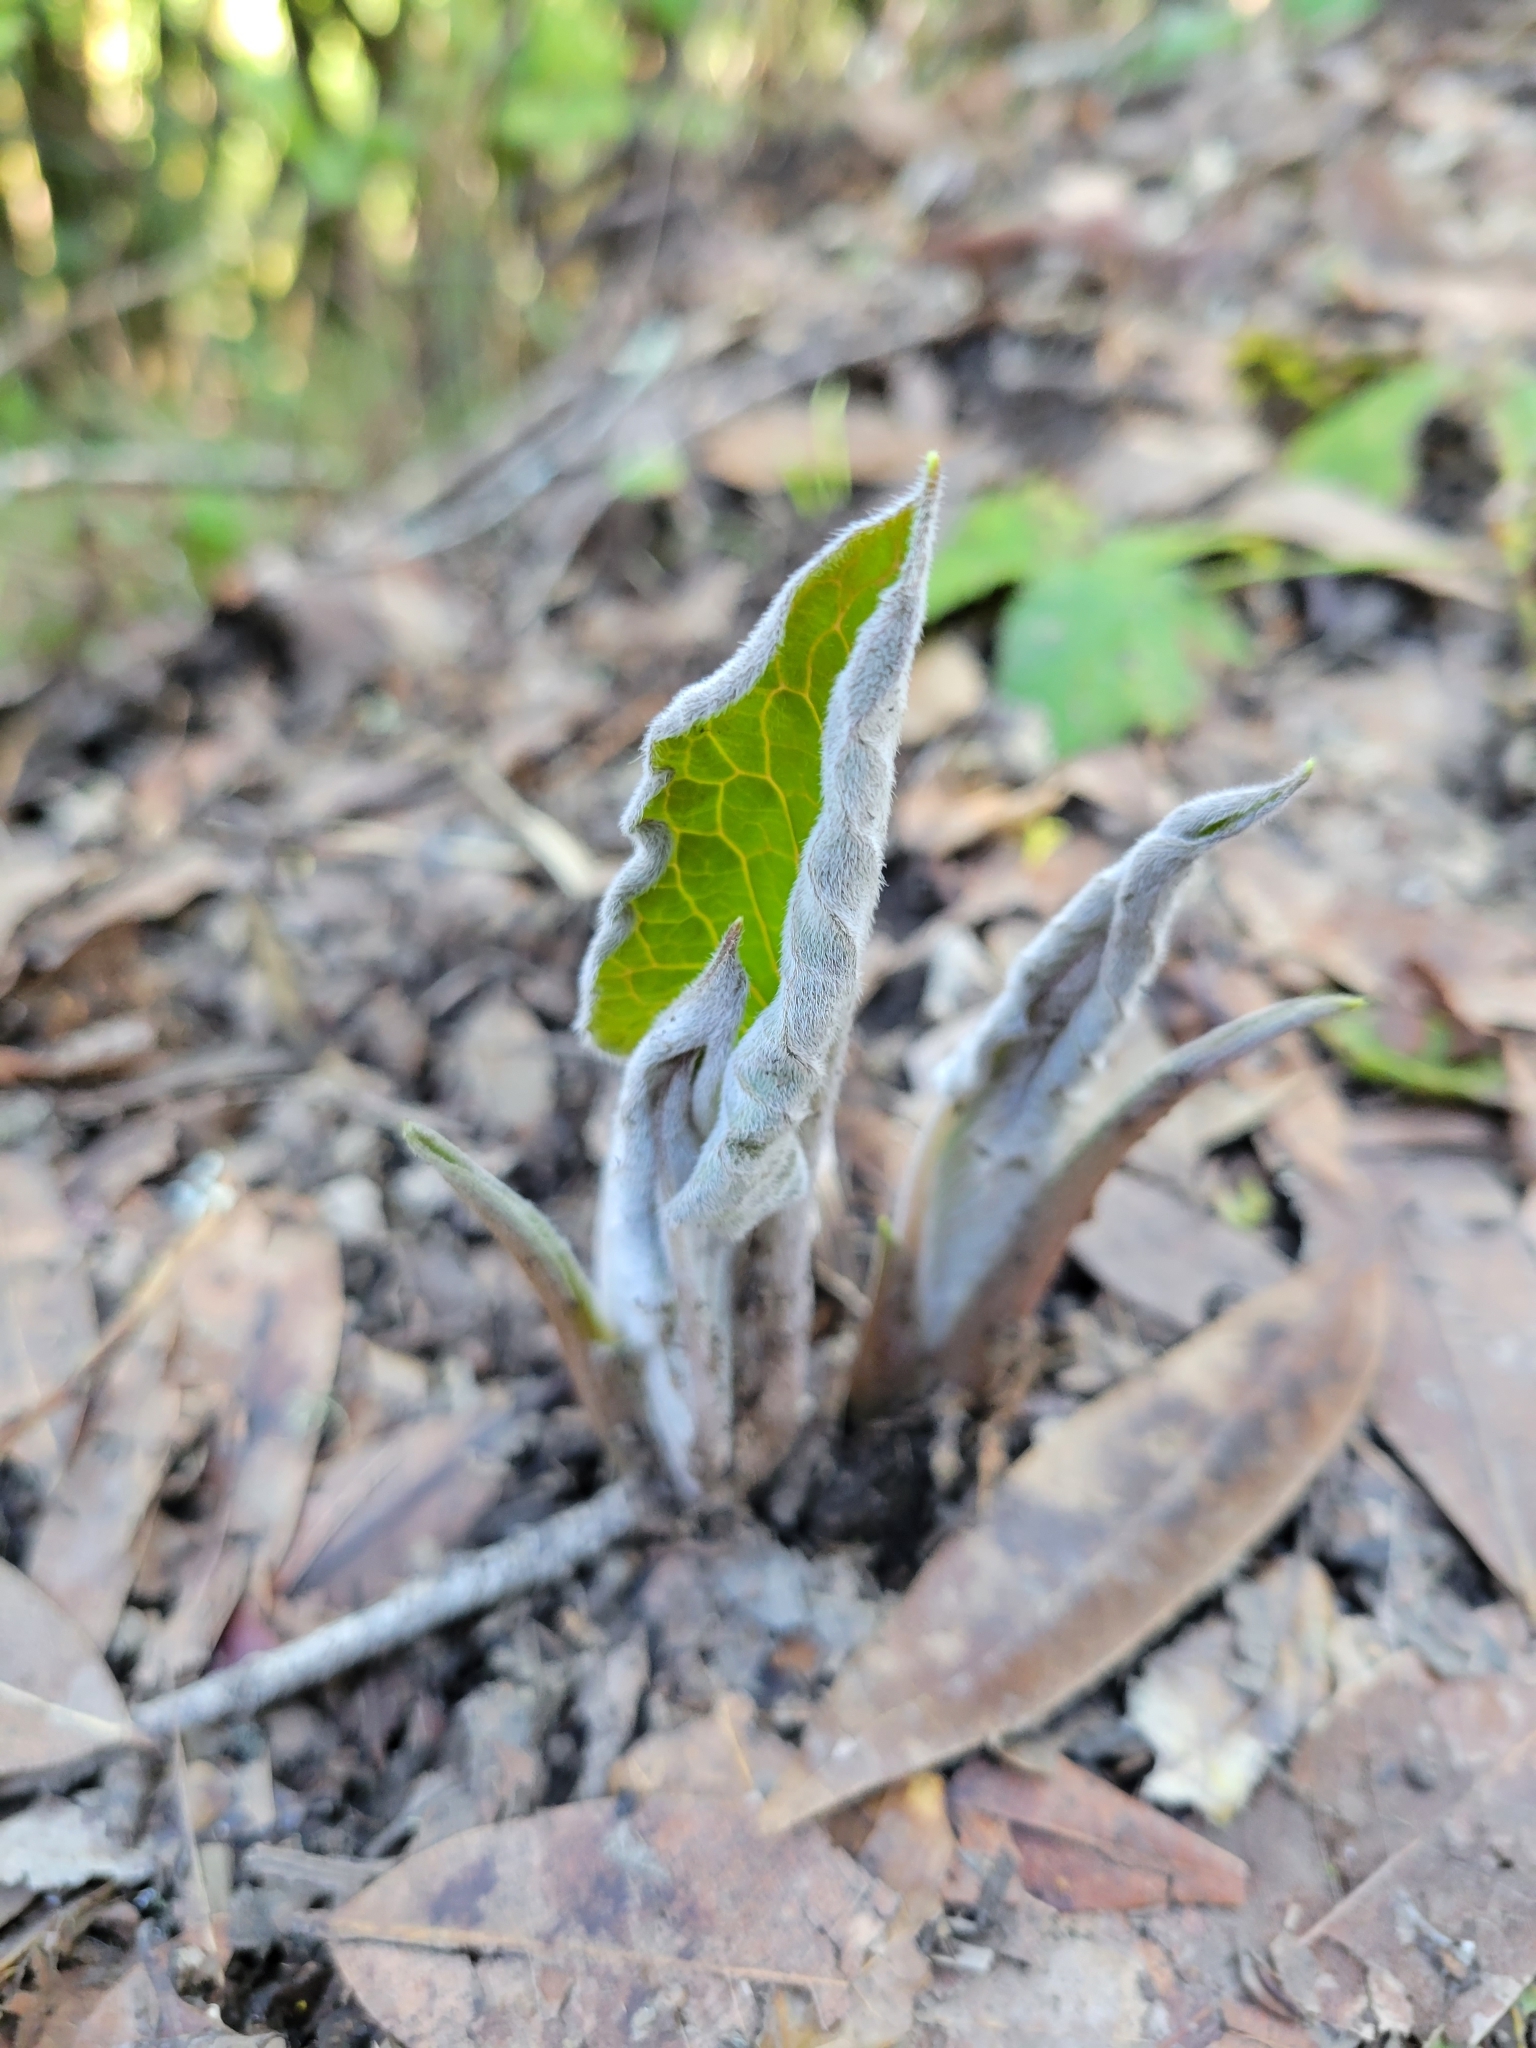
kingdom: Plantae
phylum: Tracheophyta
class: Magnoliopsida
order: Boraginales
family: Boraginaceae
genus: Adelinia
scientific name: Adelinia grande
